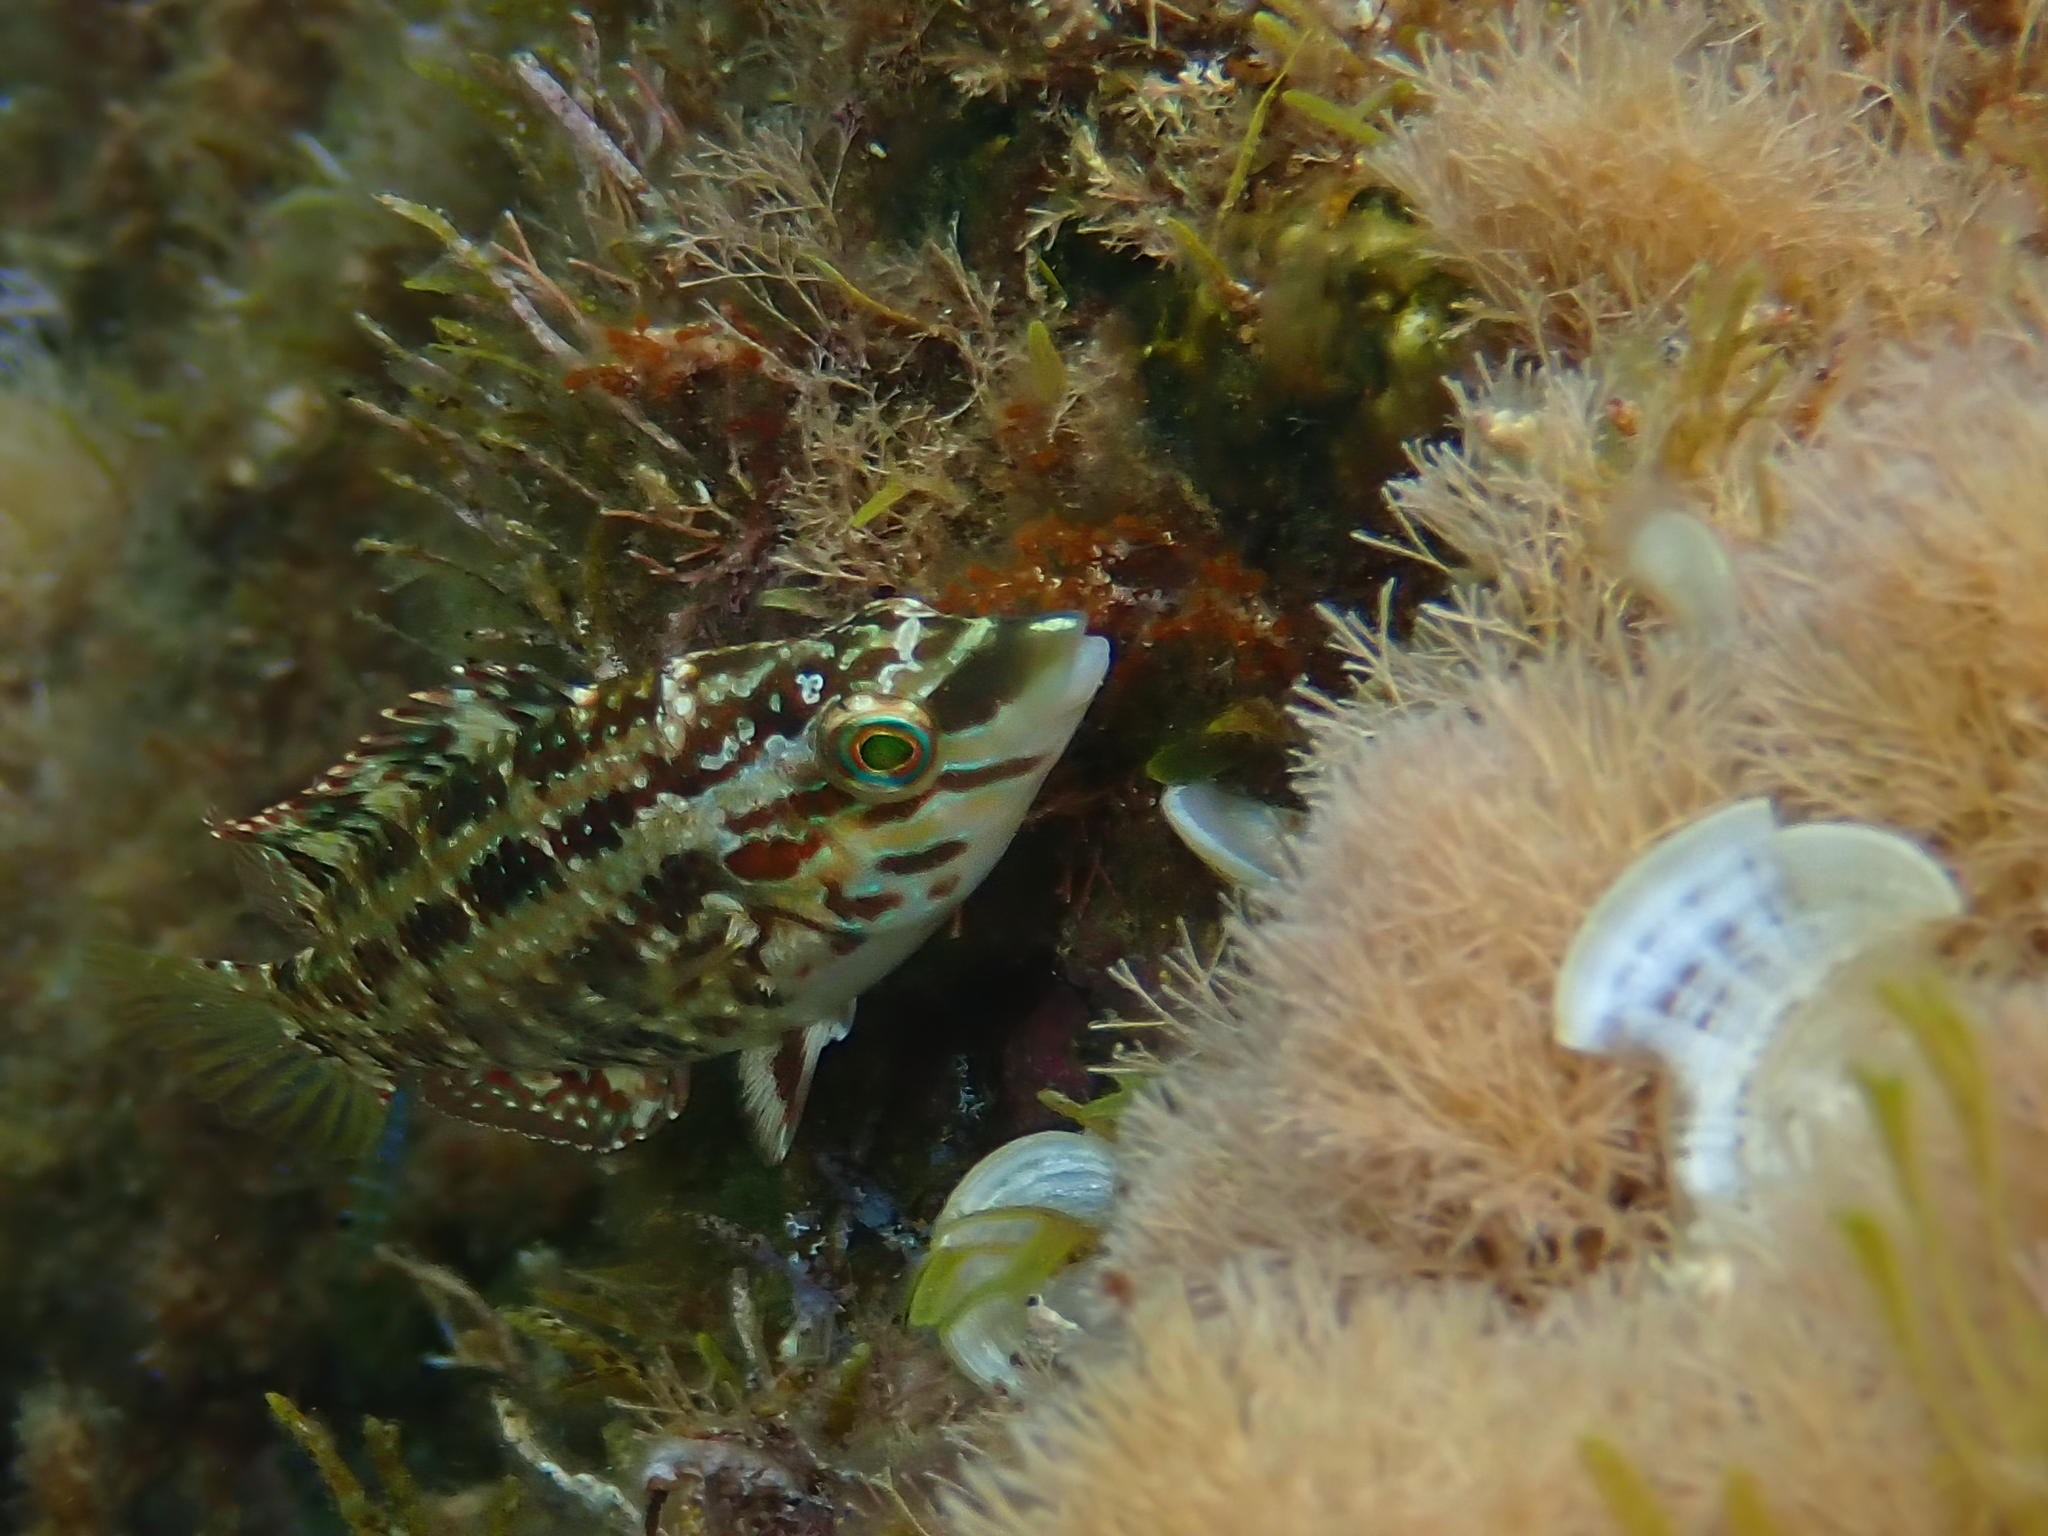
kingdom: Animalia
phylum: Chordata
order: Perciformes
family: Labridae
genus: Symphodus
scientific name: Symphodus roissali
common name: Five-spotted wrasse
